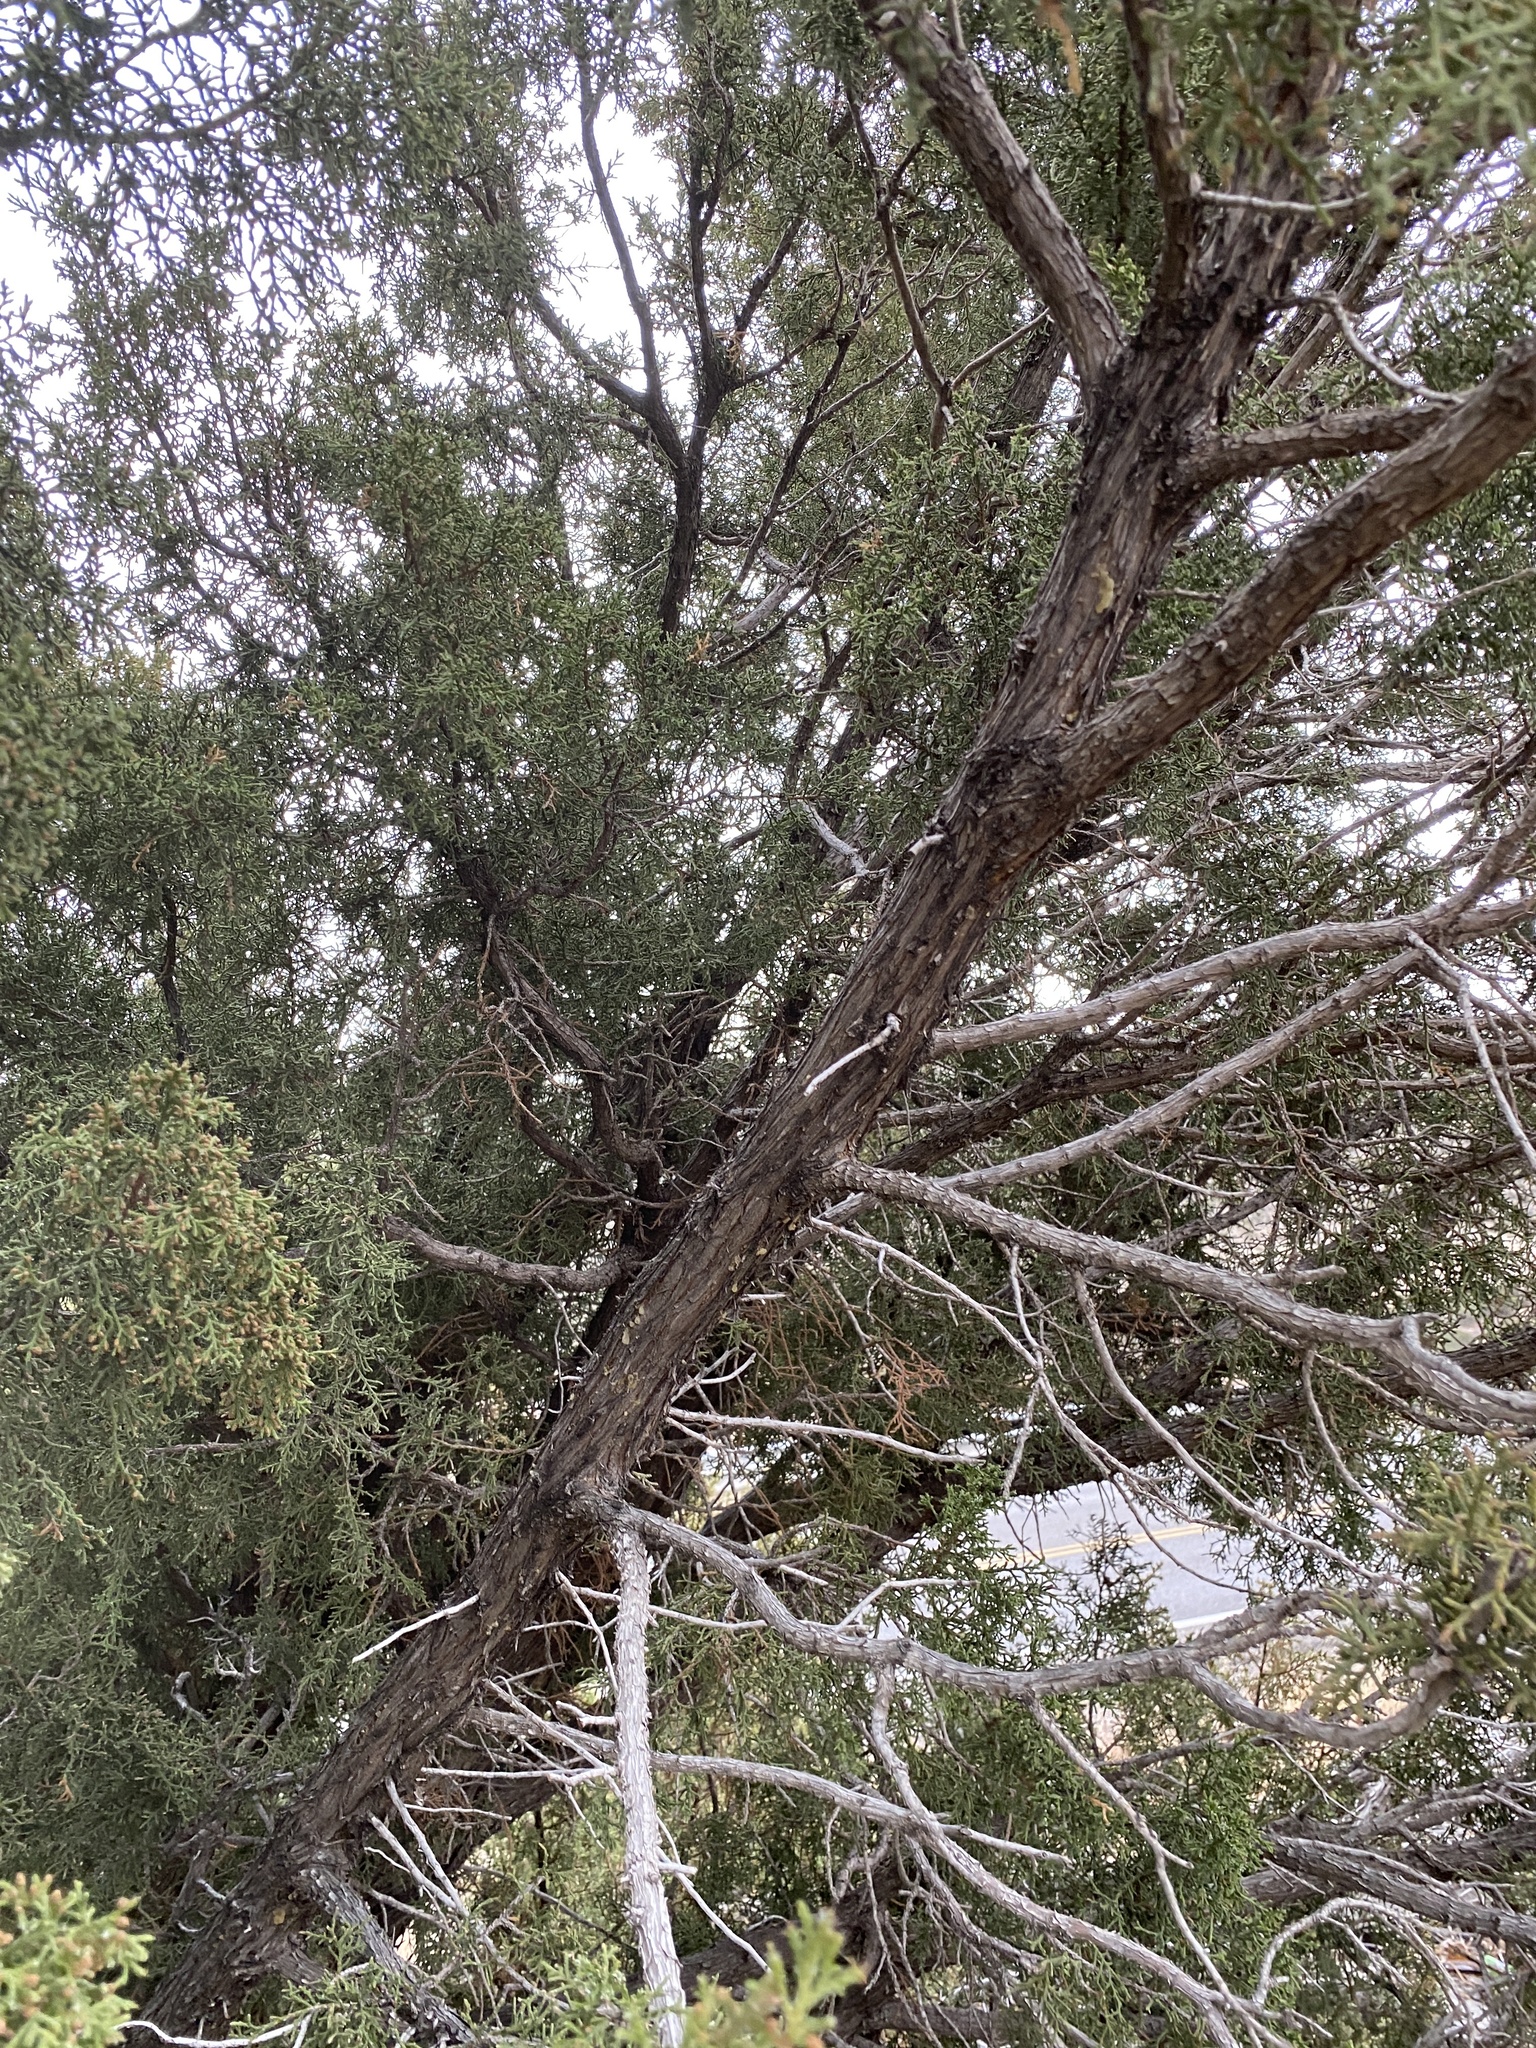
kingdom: Plantae
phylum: Tracheophyta
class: Pinopsida
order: Pinales
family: Cupressaceae
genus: Juniperus
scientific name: Juniperus monosperma
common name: One-seed juniper
